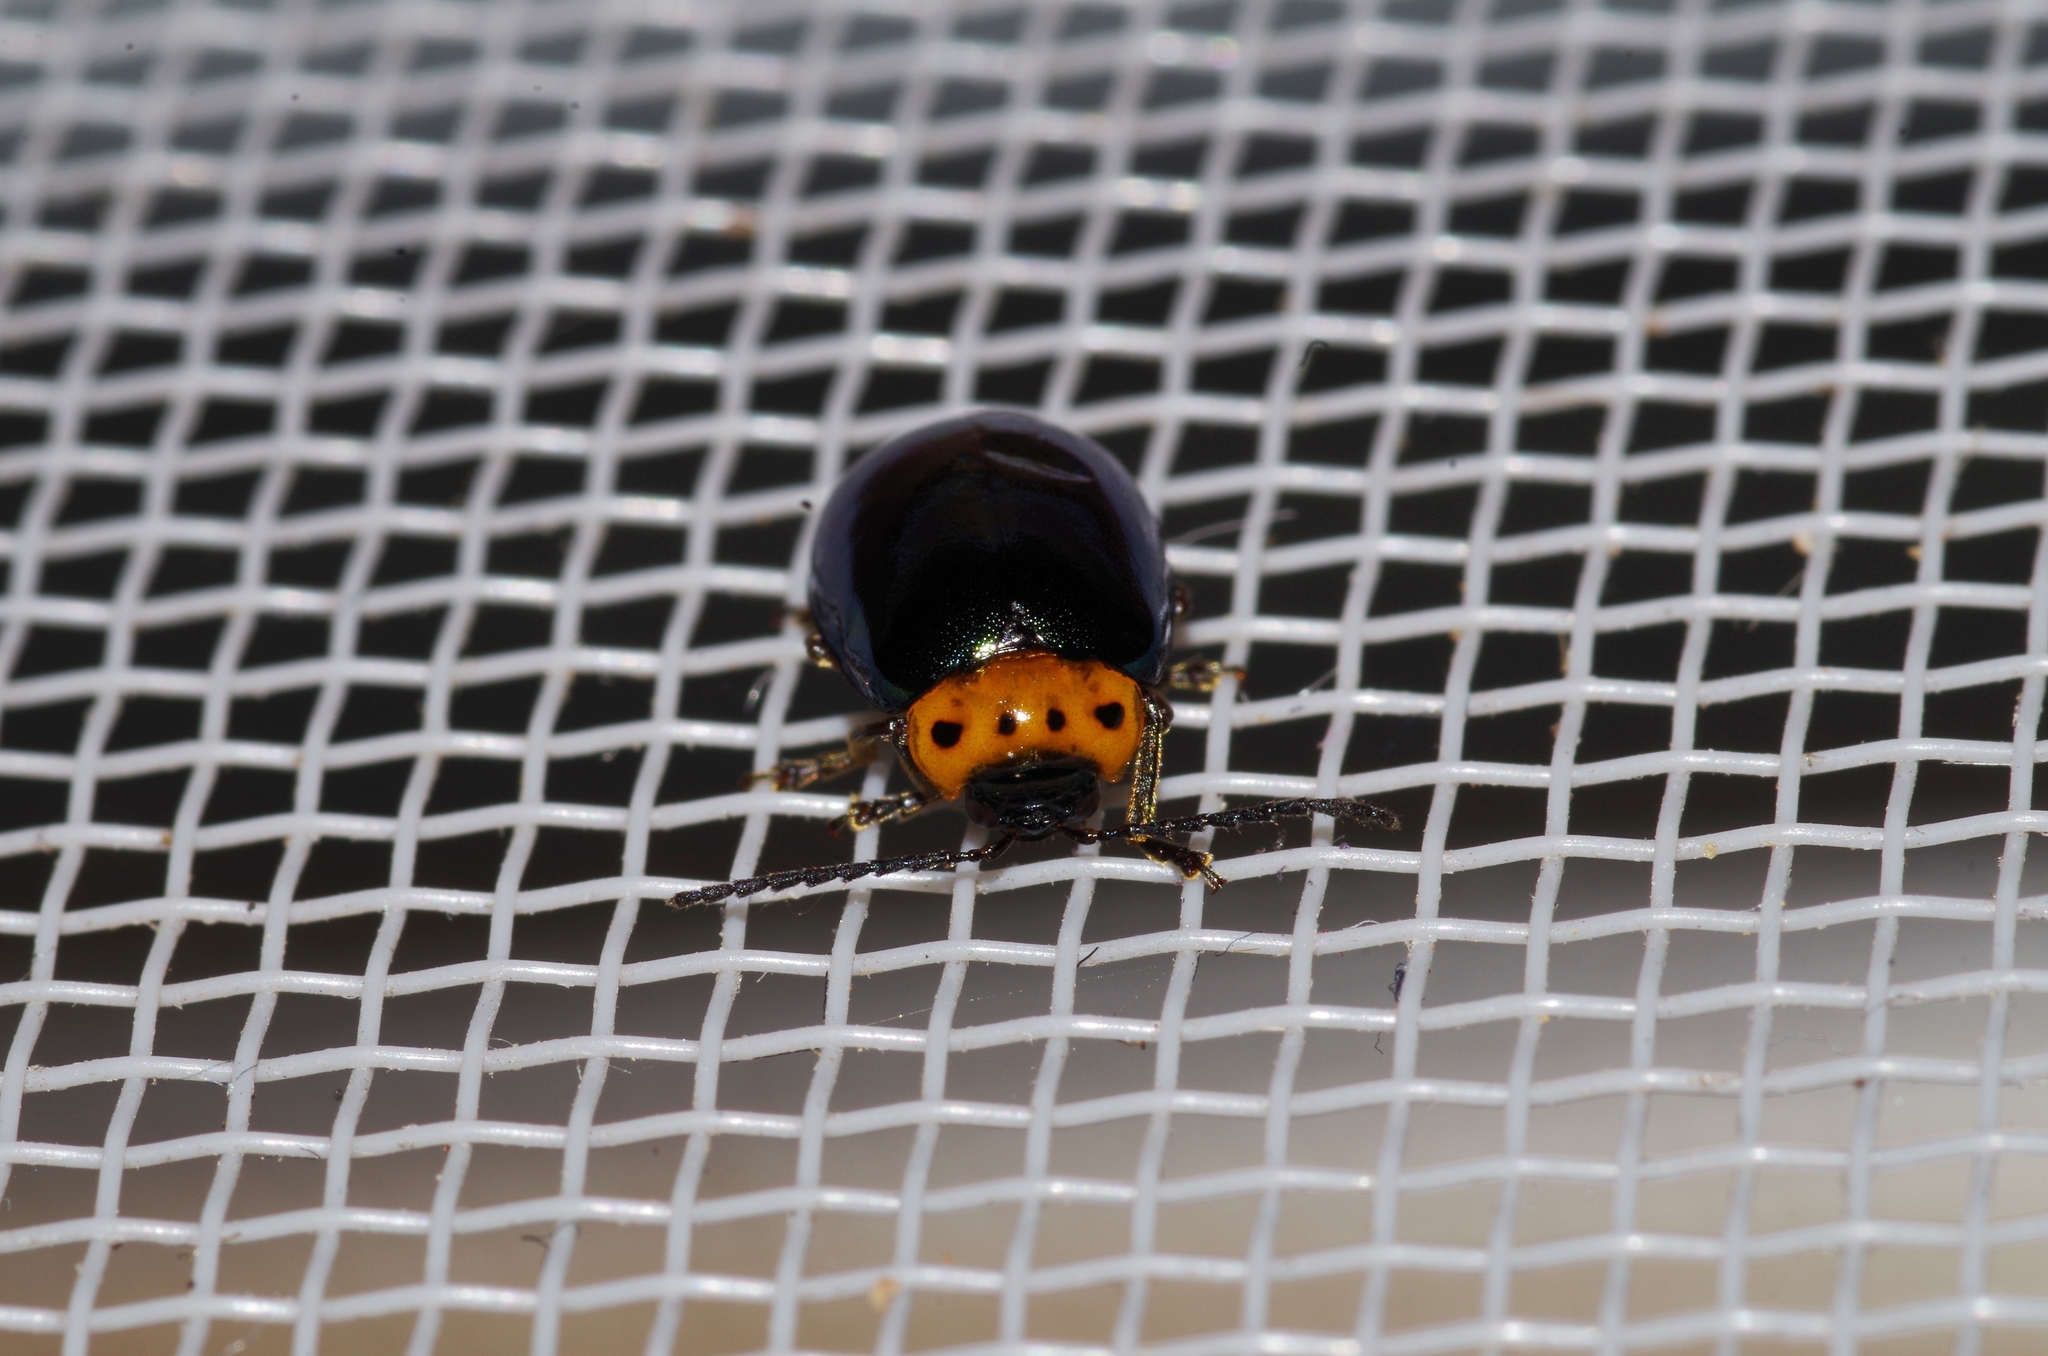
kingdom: Animalia
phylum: Arthropoda
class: Insecta
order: Coleoptera
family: Chrysomelidae
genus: Morphosphaera
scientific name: Morphosphaera caerulea
